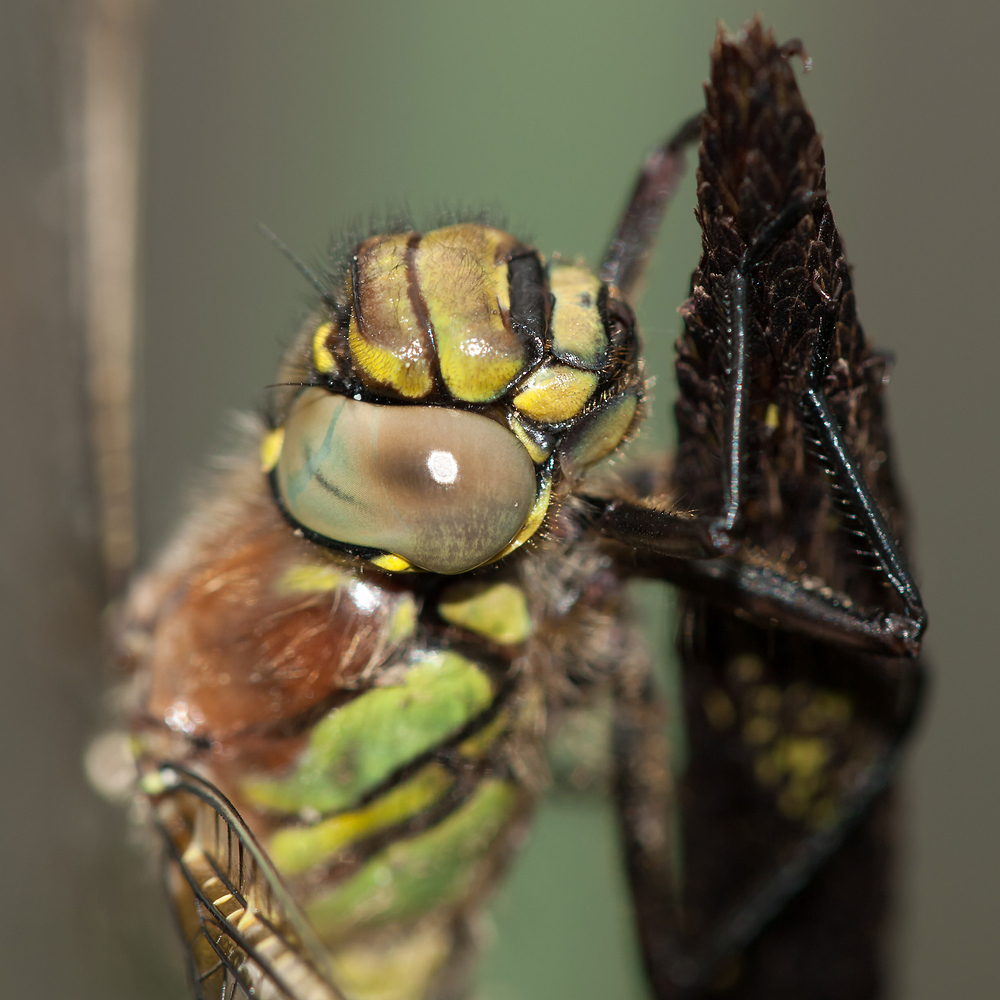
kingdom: Animalia
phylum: Arthropoda
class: Insecta
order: Odonata
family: Aeshnidae
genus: Brachytron
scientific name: Brachytron pratense
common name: Hairy hawker
